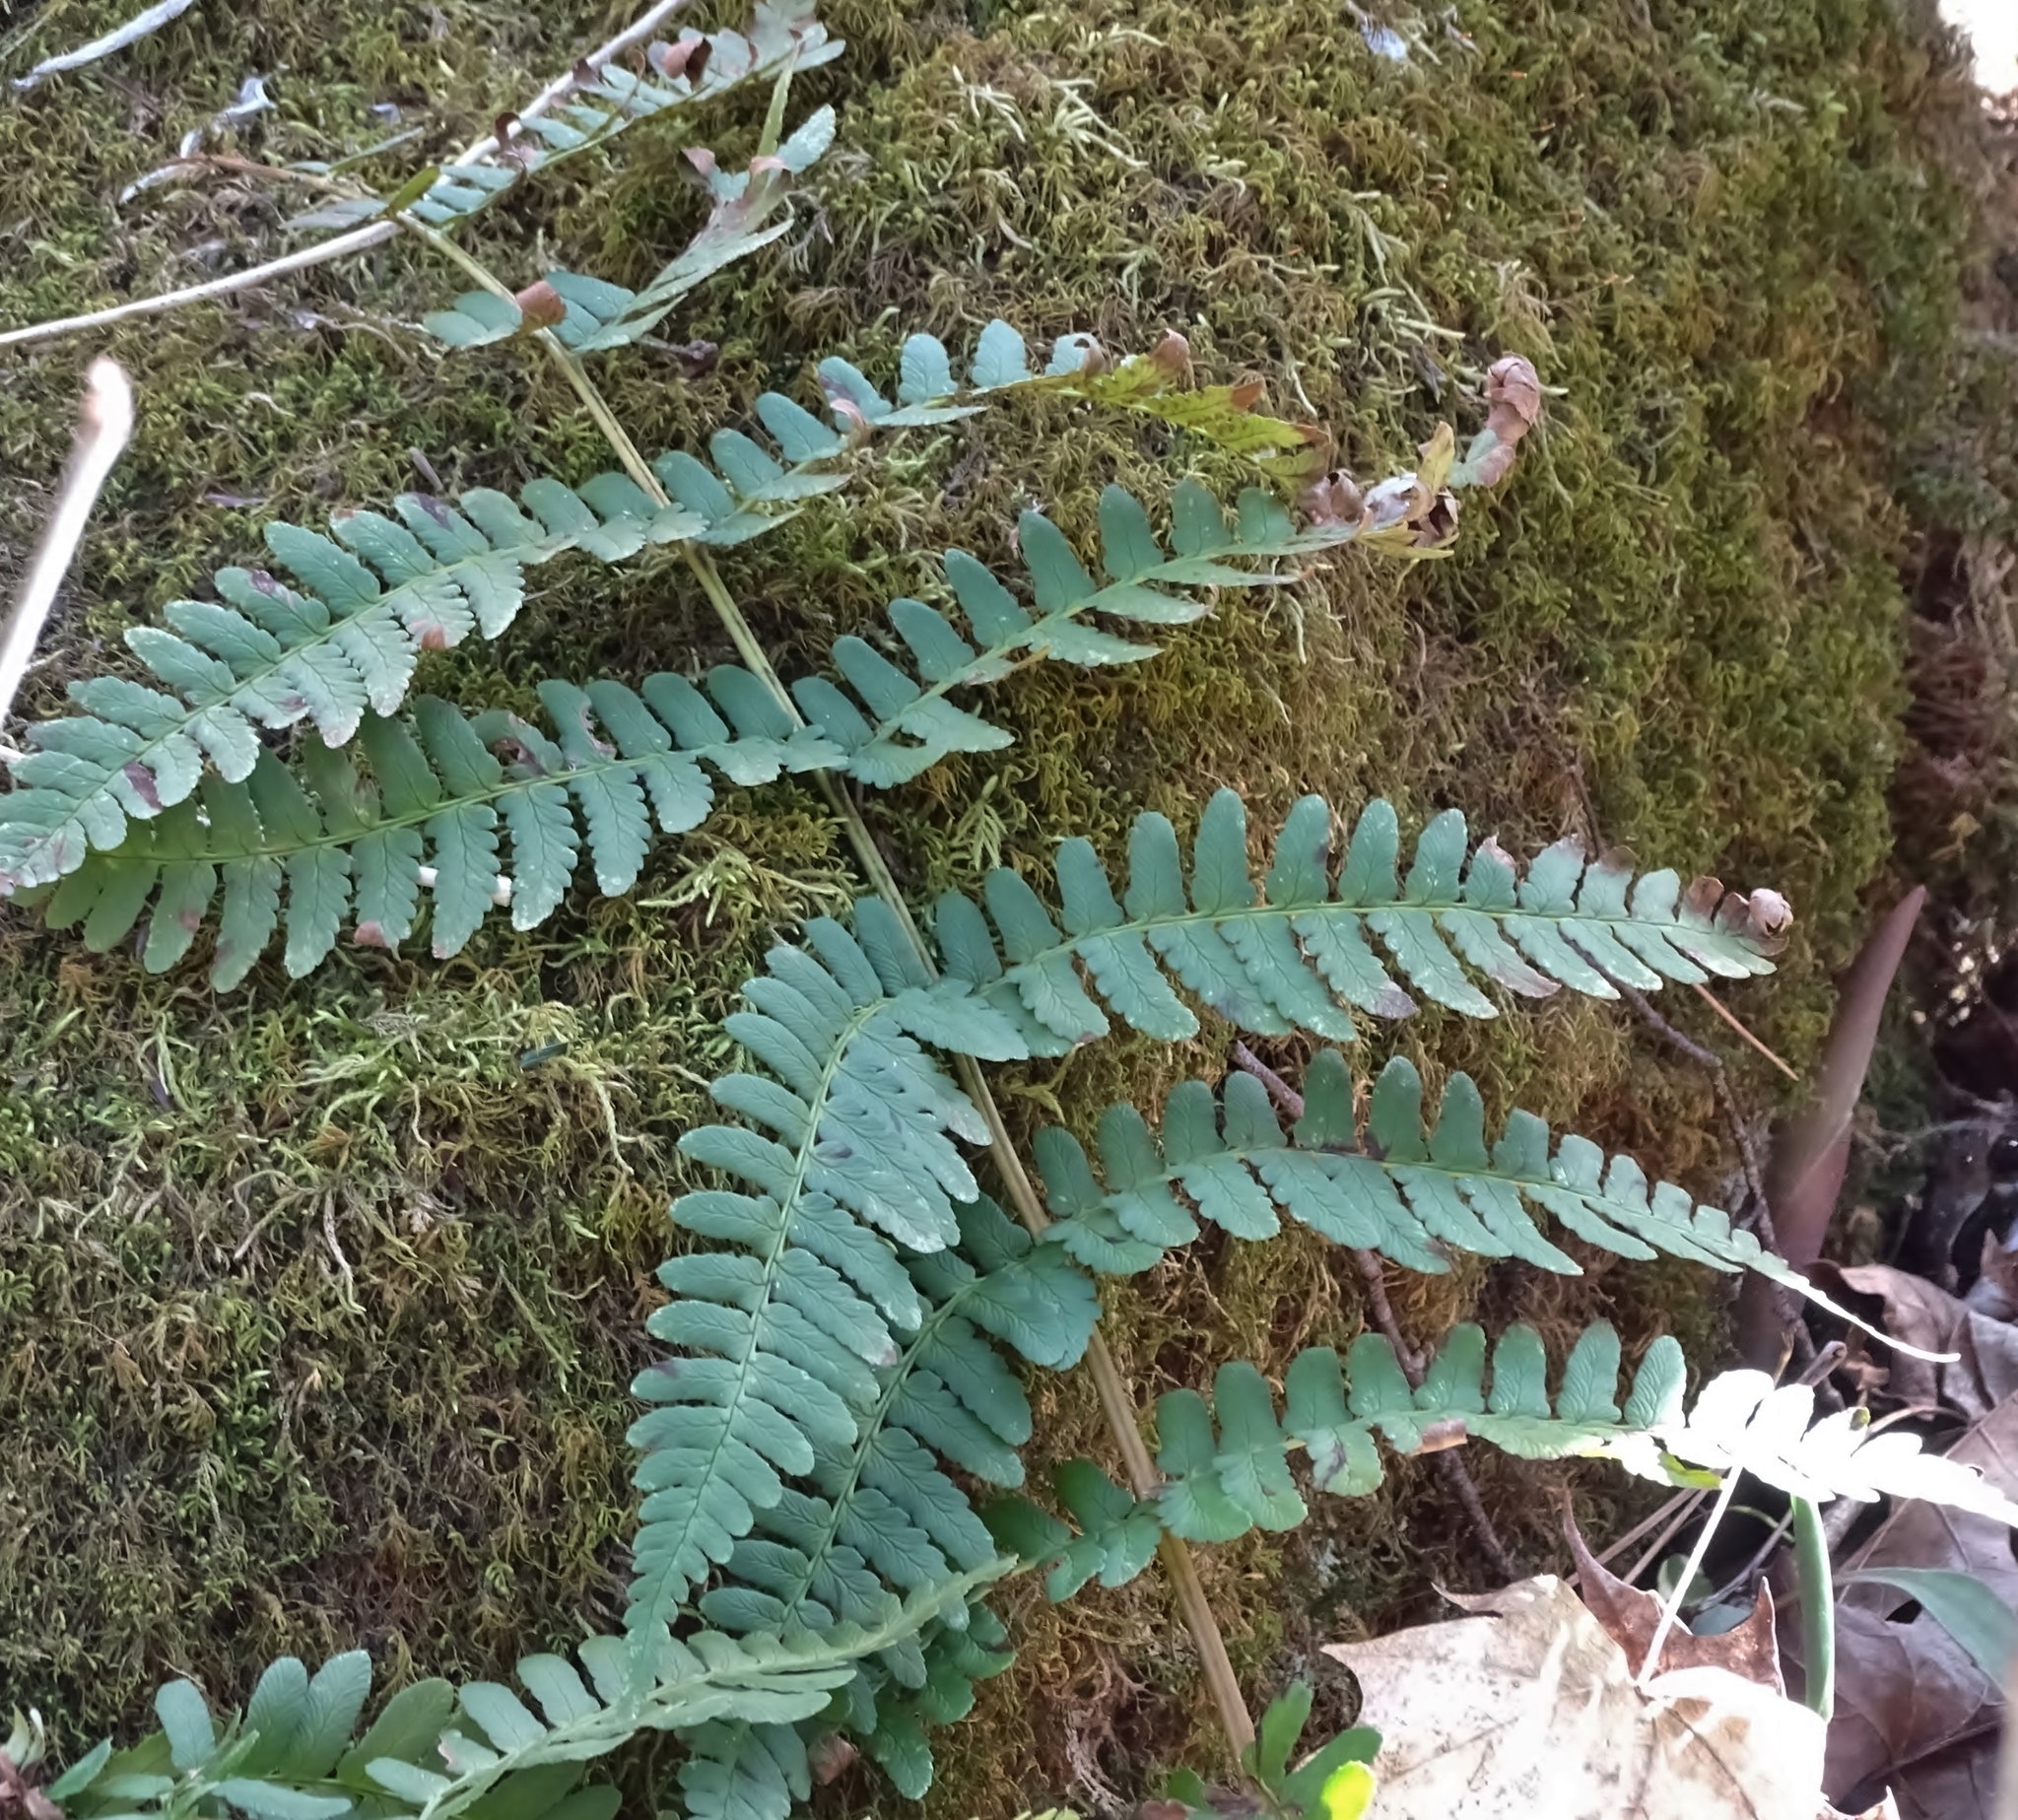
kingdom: Plantae
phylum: Tracheophyta
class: Polypodiopsida
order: Polypodiales
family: Dryopteridaceae
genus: Dryopteris
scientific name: Dryopteris marginalis
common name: Marginal wood fern
